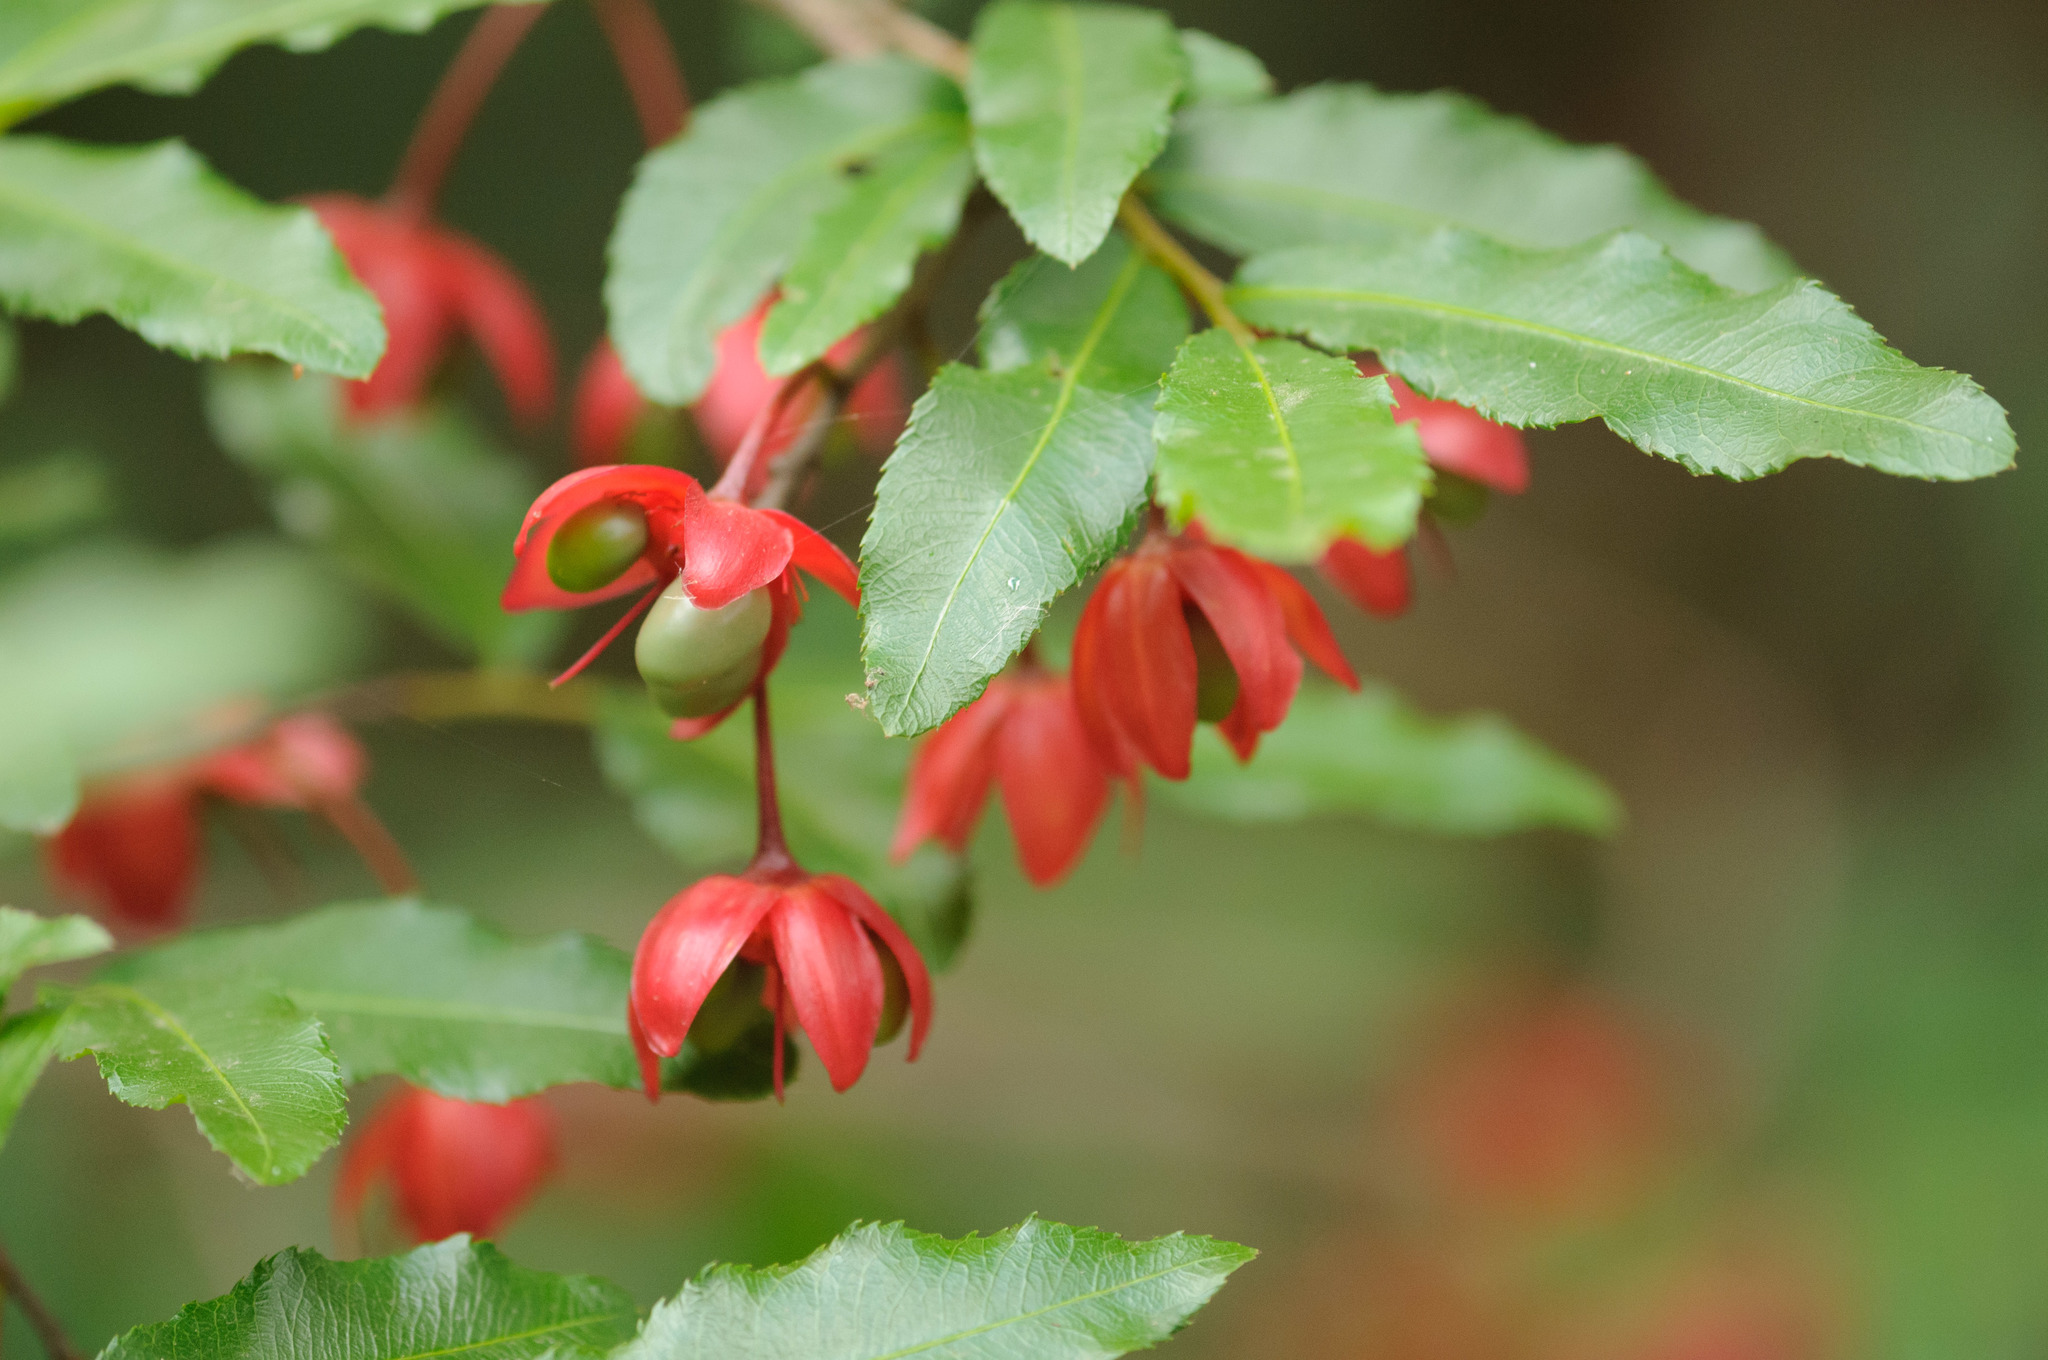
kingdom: Plantae
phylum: Tracheophyta
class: Magnoliopsida
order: Malpighiales
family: Ochnaceae
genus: Ochna
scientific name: Ochna serrulata
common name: Mickey mouse plant
